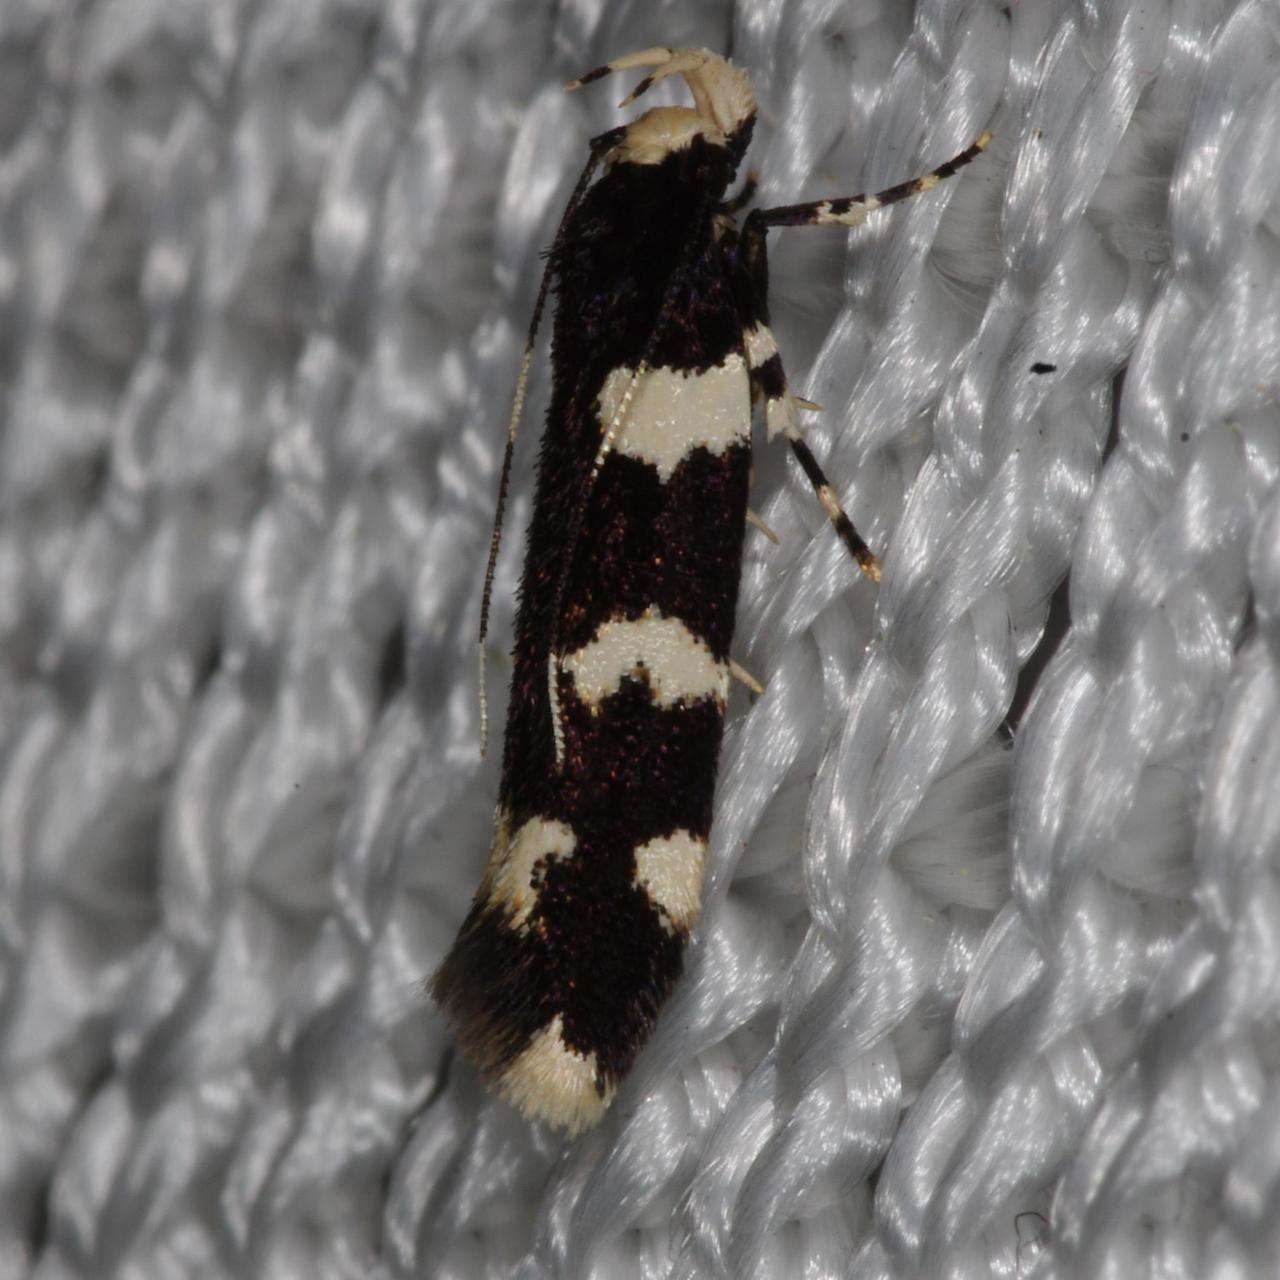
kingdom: Animalia
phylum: Arthropoda
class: Insecta
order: Lepidoptera
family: Cosmopterigidae
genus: Limnaecia
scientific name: Limnaecia cirrhosema
